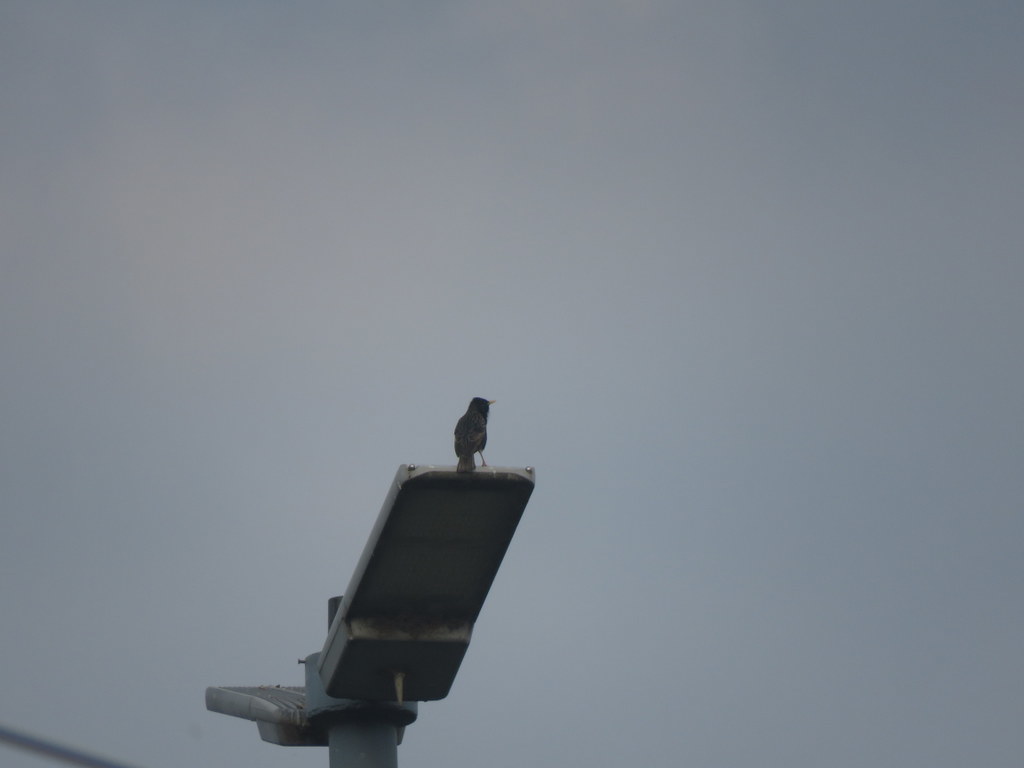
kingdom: Animalia
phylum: Chordata
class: Aves
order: Passeriformes
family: Sturnidae
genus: Sturnus
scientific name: Sturnus vulgaris
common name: Common starling
